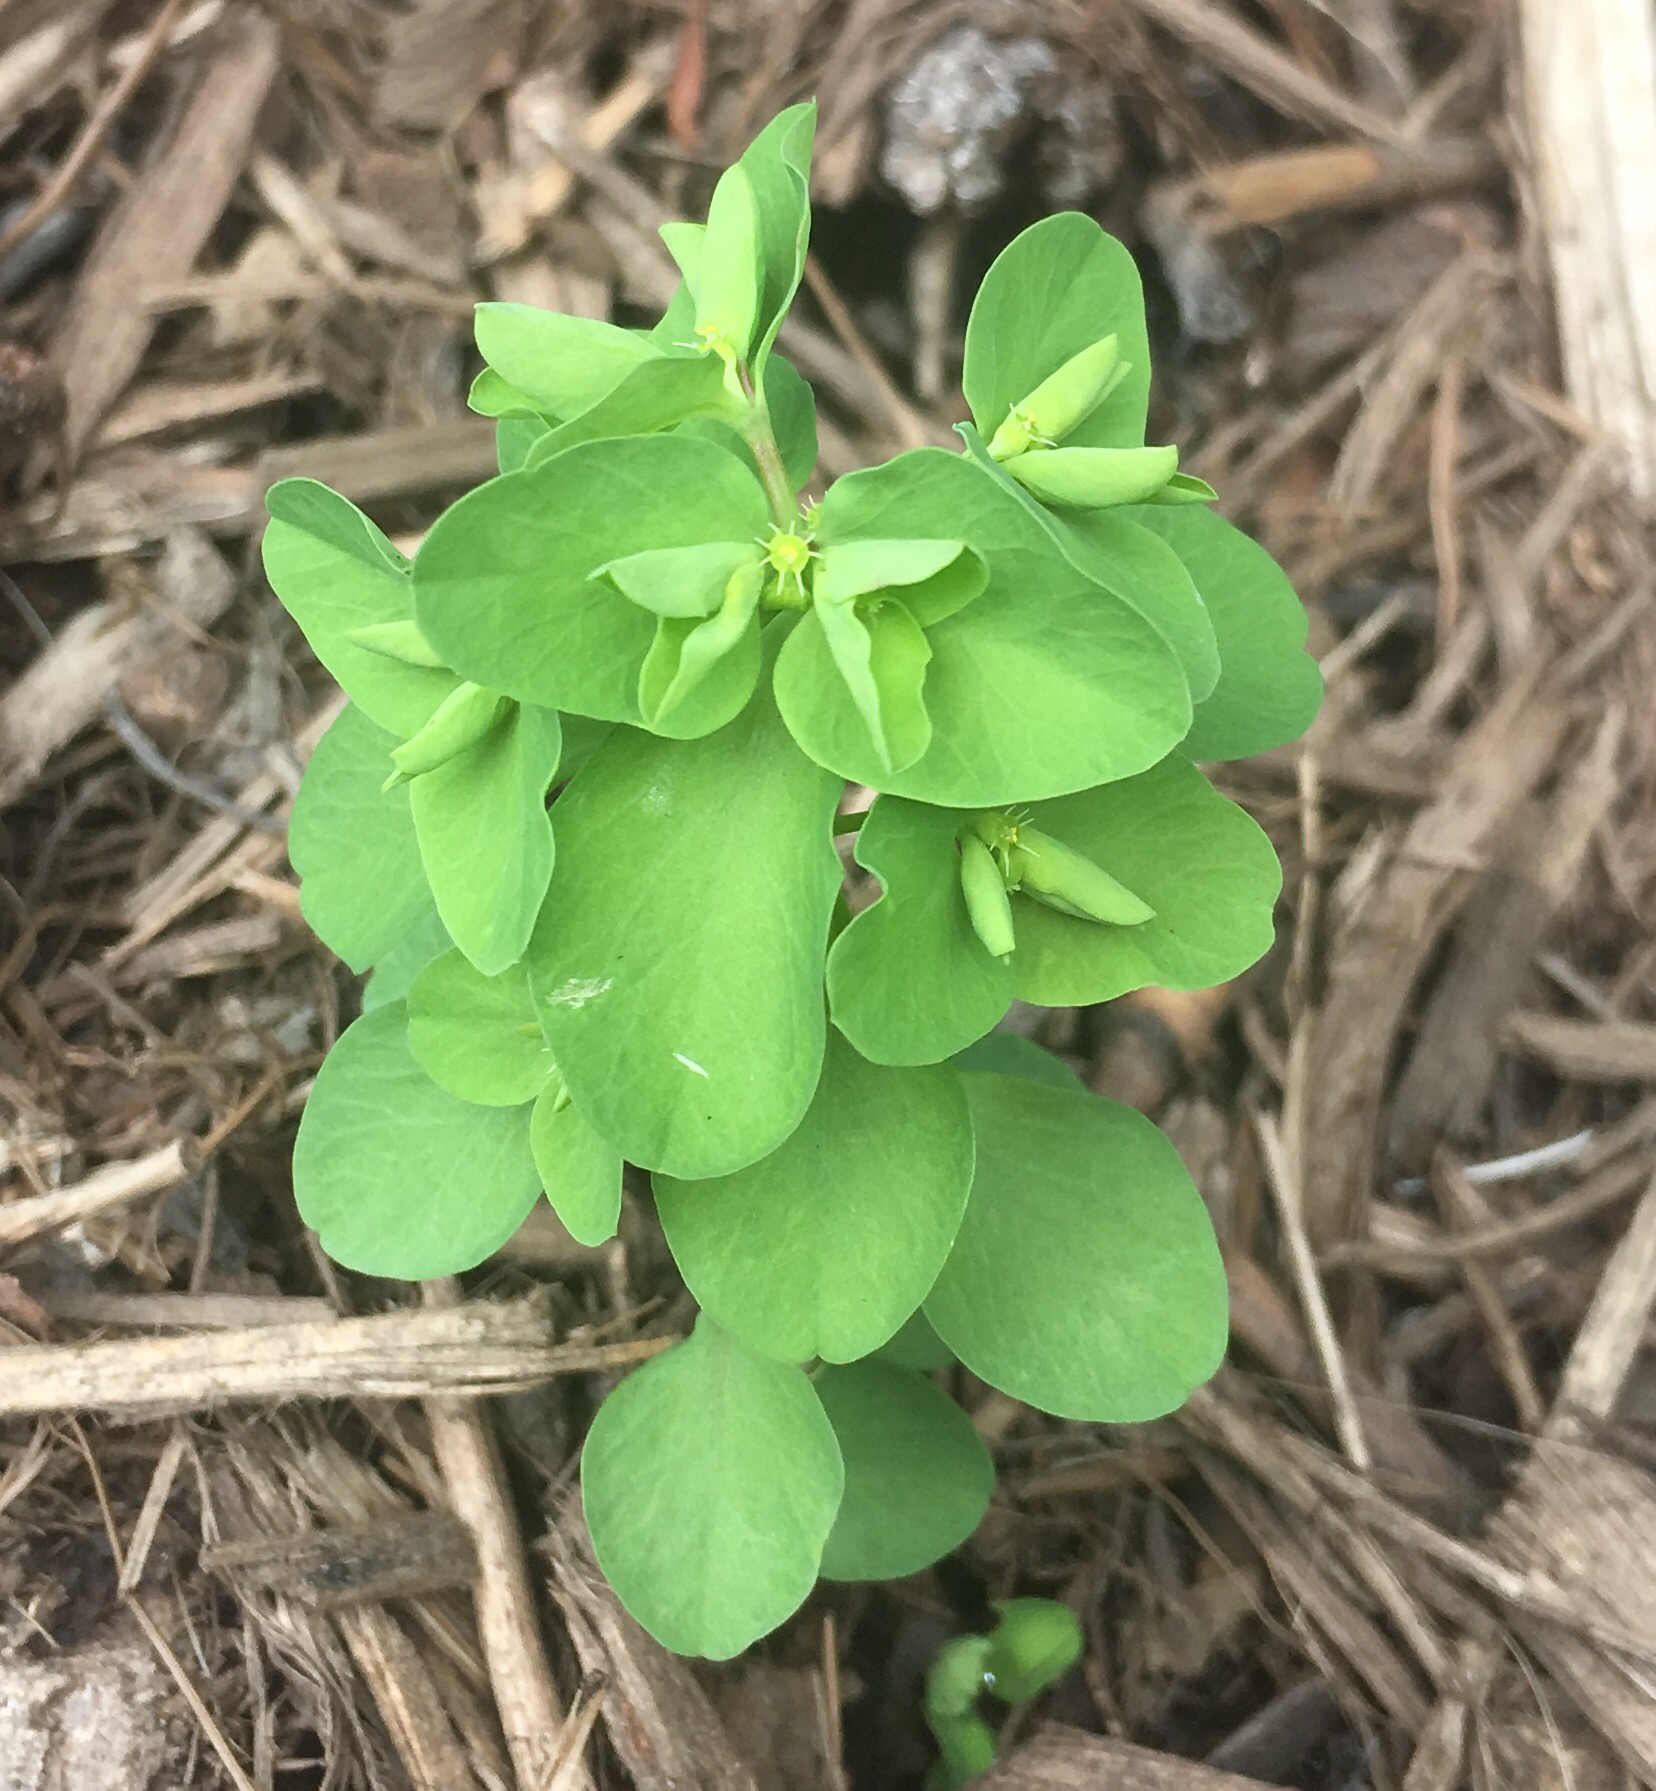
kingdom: Plantae
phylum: Tracheophyta
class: Magnoliopsida
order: Malpighiales
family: Euphorbiaceae
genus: Euphorbia
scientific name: Euphorbia peplus
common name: Petty spurge
